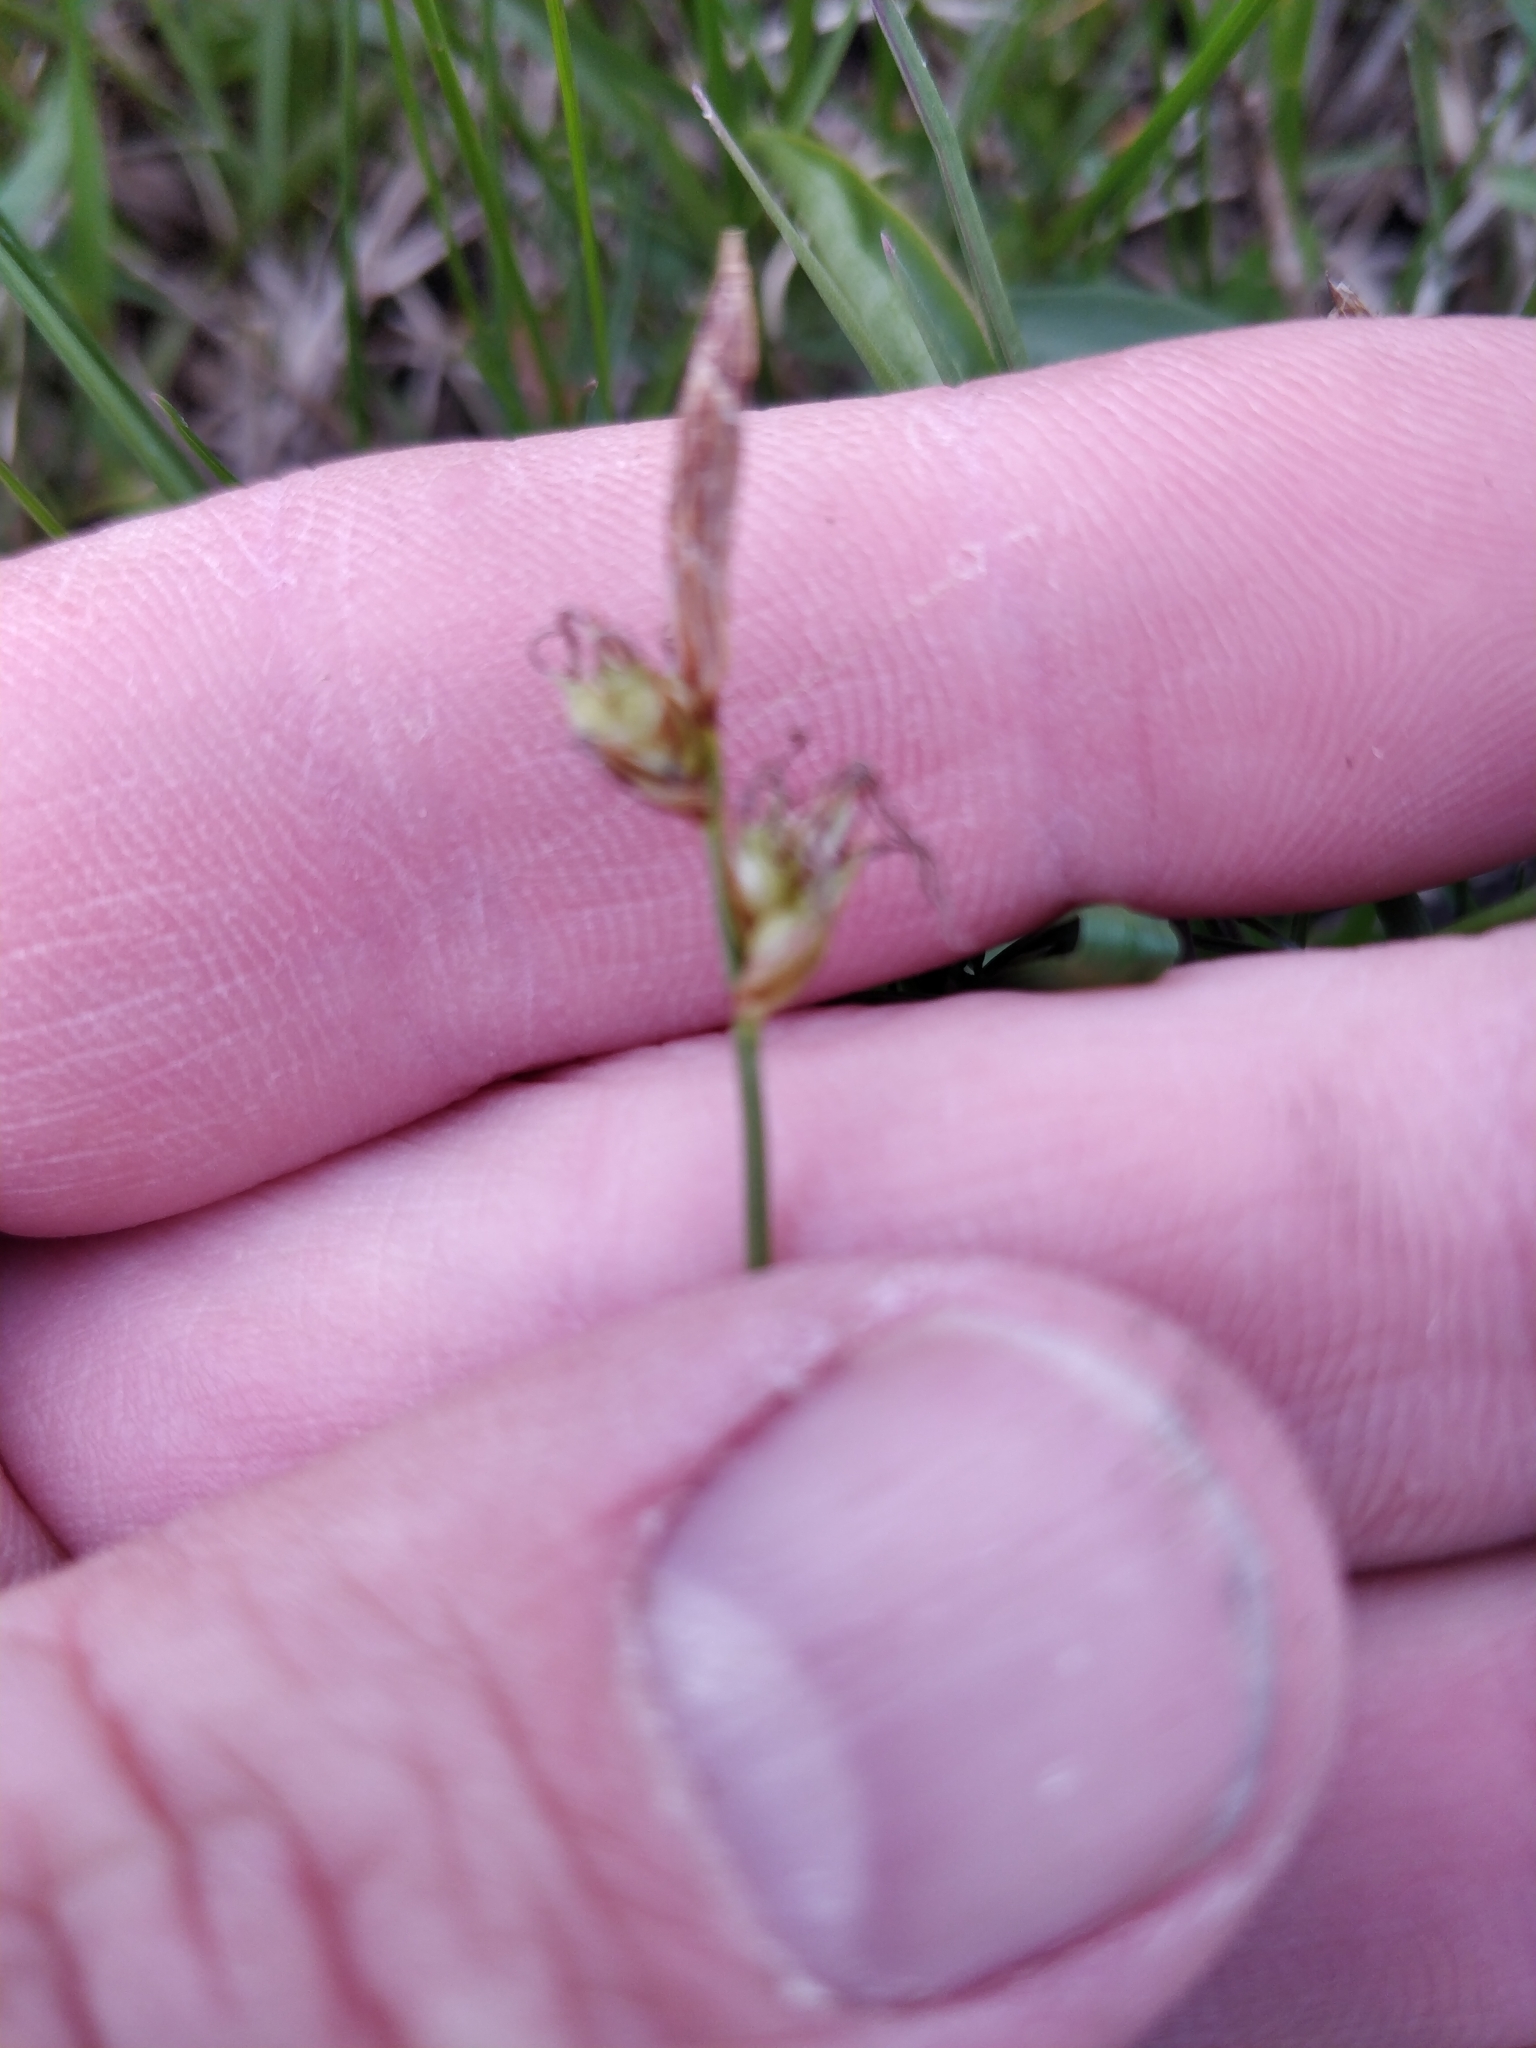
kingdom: Plantae
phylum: Tracheophyta
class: Liliopsida
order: Poales
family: Cyperaceae
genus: Carex
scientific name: Carex inops
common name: Long-stolon sedge
